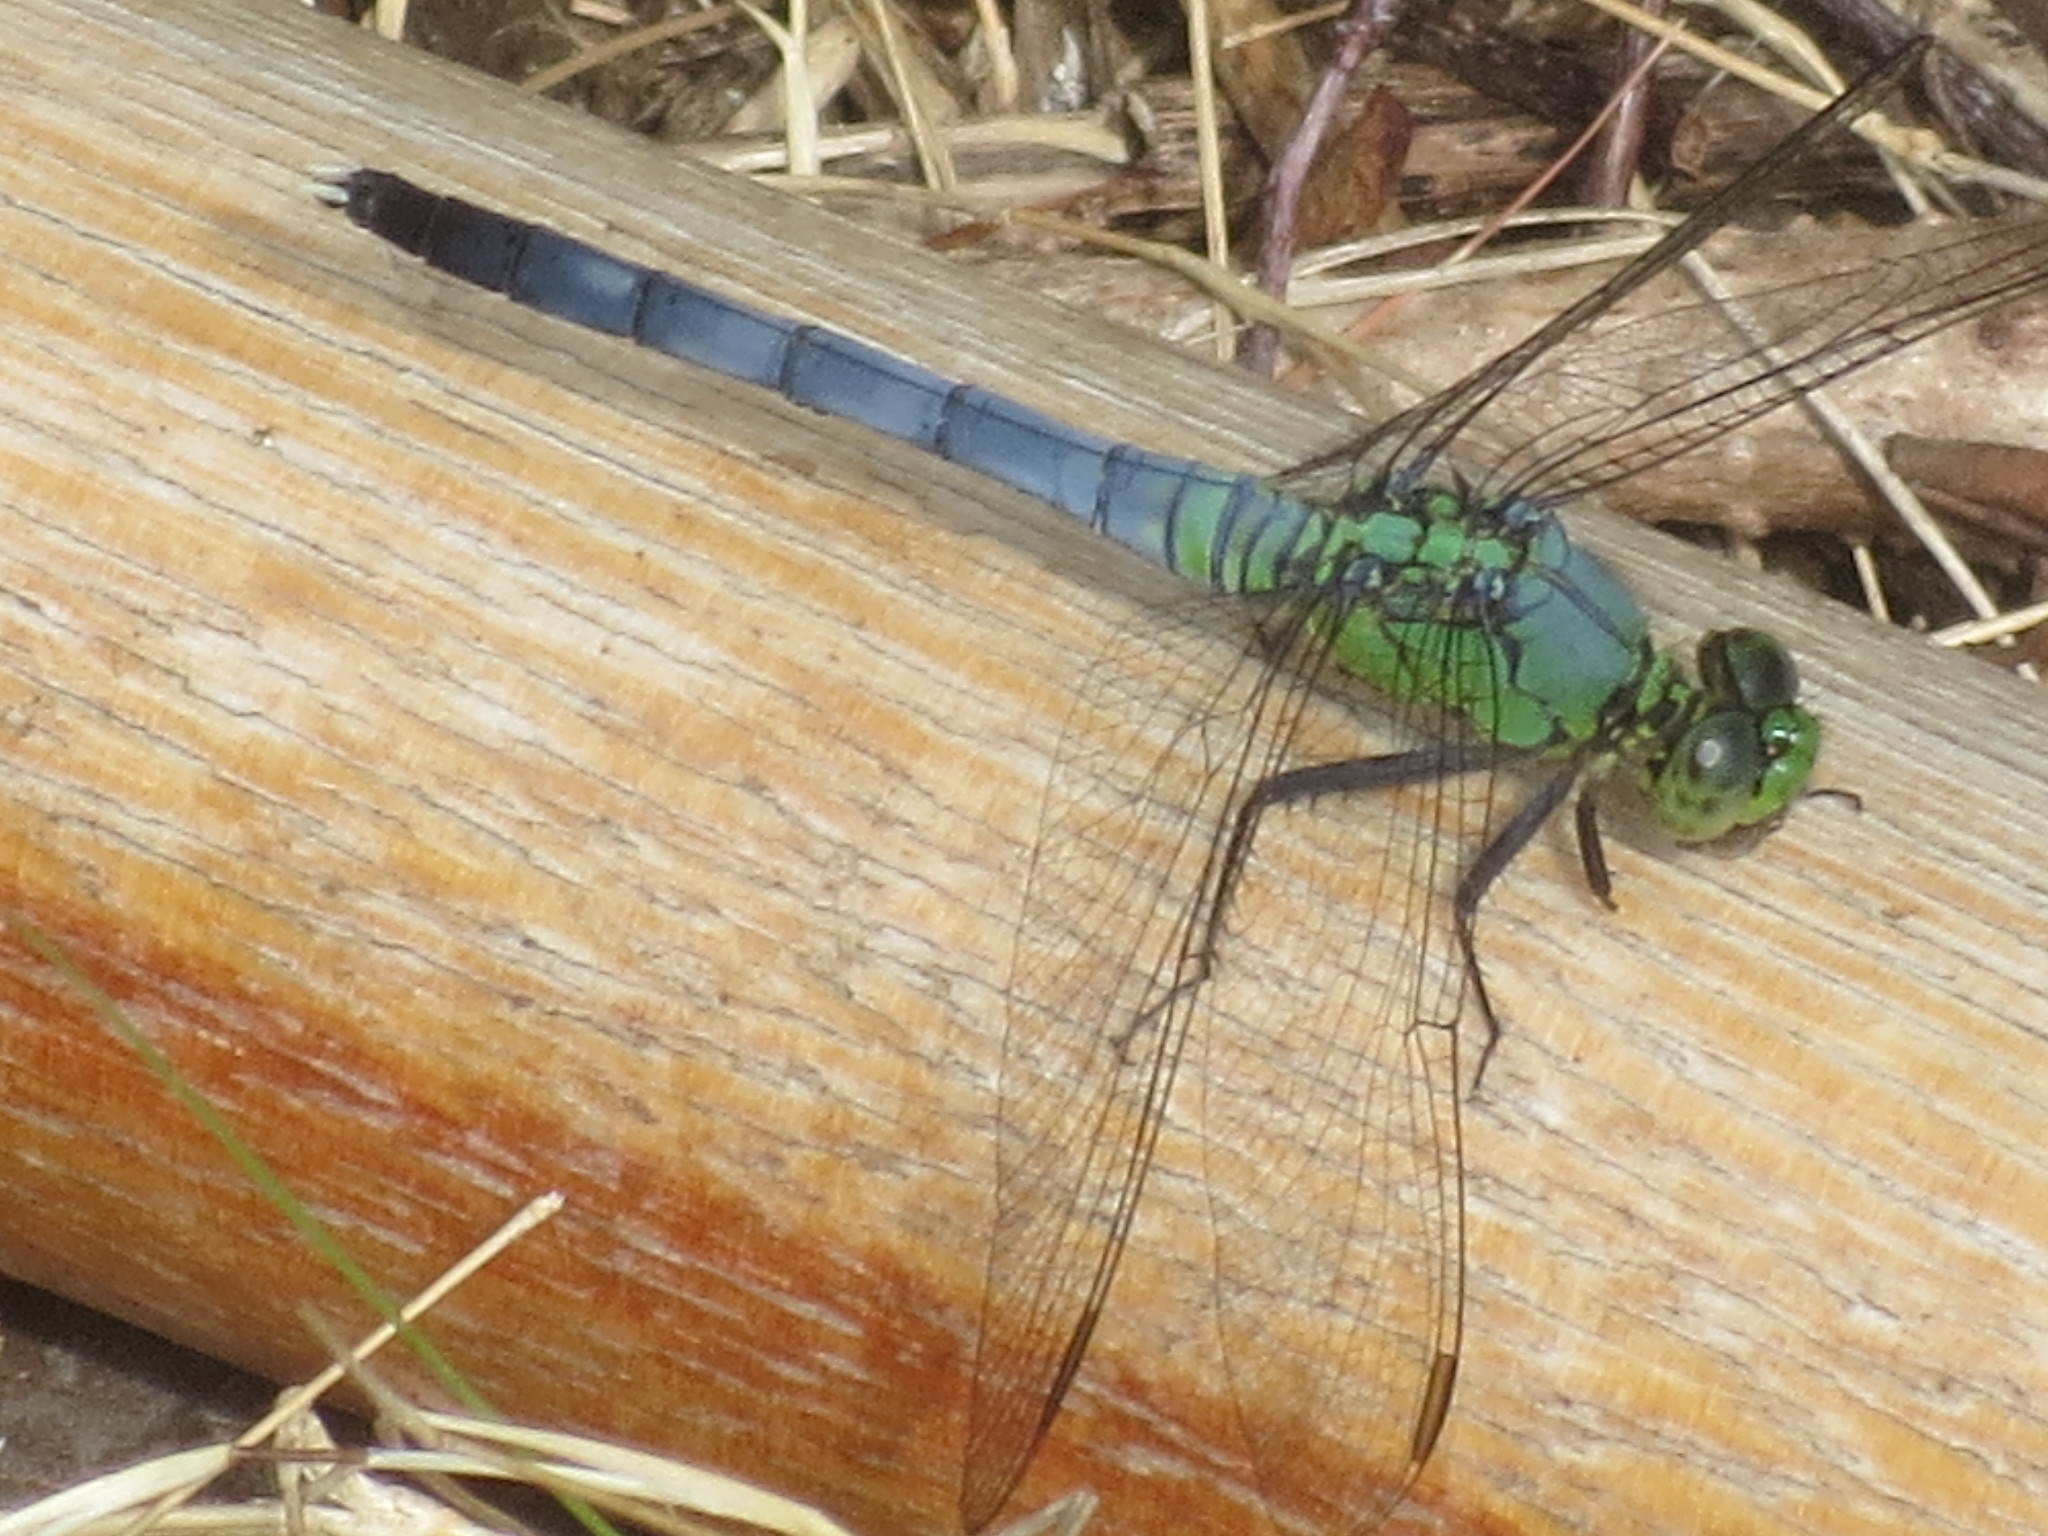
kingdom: Animalia
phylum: Arthropoda
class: Insecta
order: Odonata
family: Libellulidae
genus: Erythemis
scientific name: Erythemis simplicicollis
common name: Eastern pondhawk
